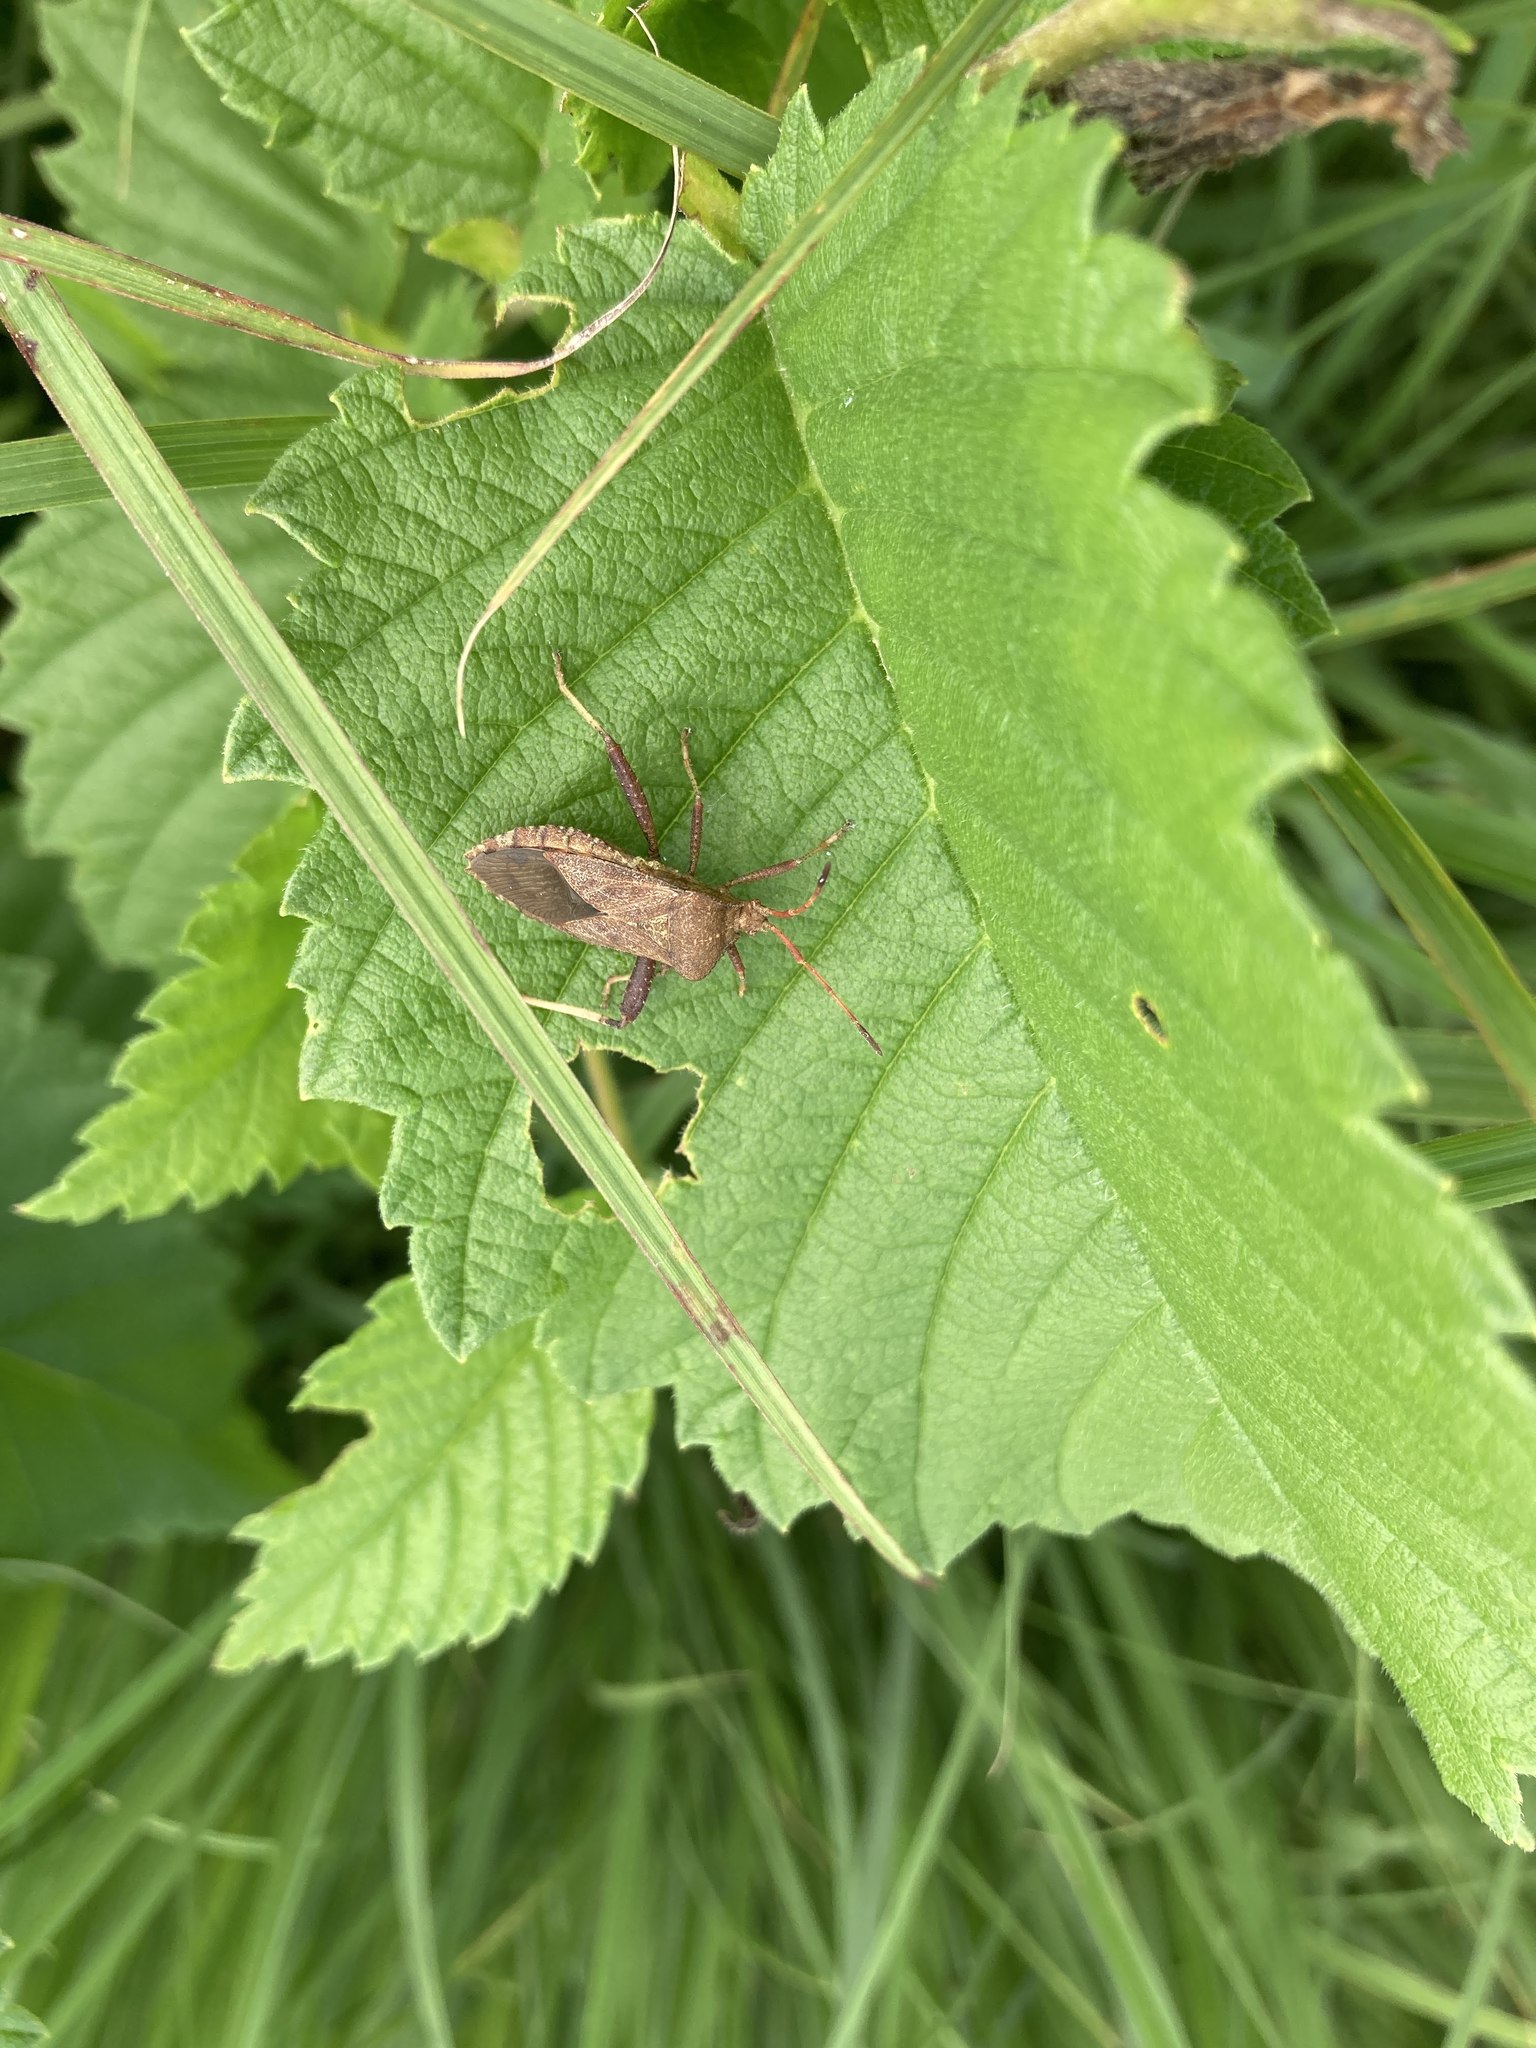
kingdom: Animalia
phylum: Arthropoda
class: Insecta
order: Hemiptera
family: Coreidae
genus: Euthochtha
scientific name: Euthochtha galeator
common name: Helmeted squash bug
